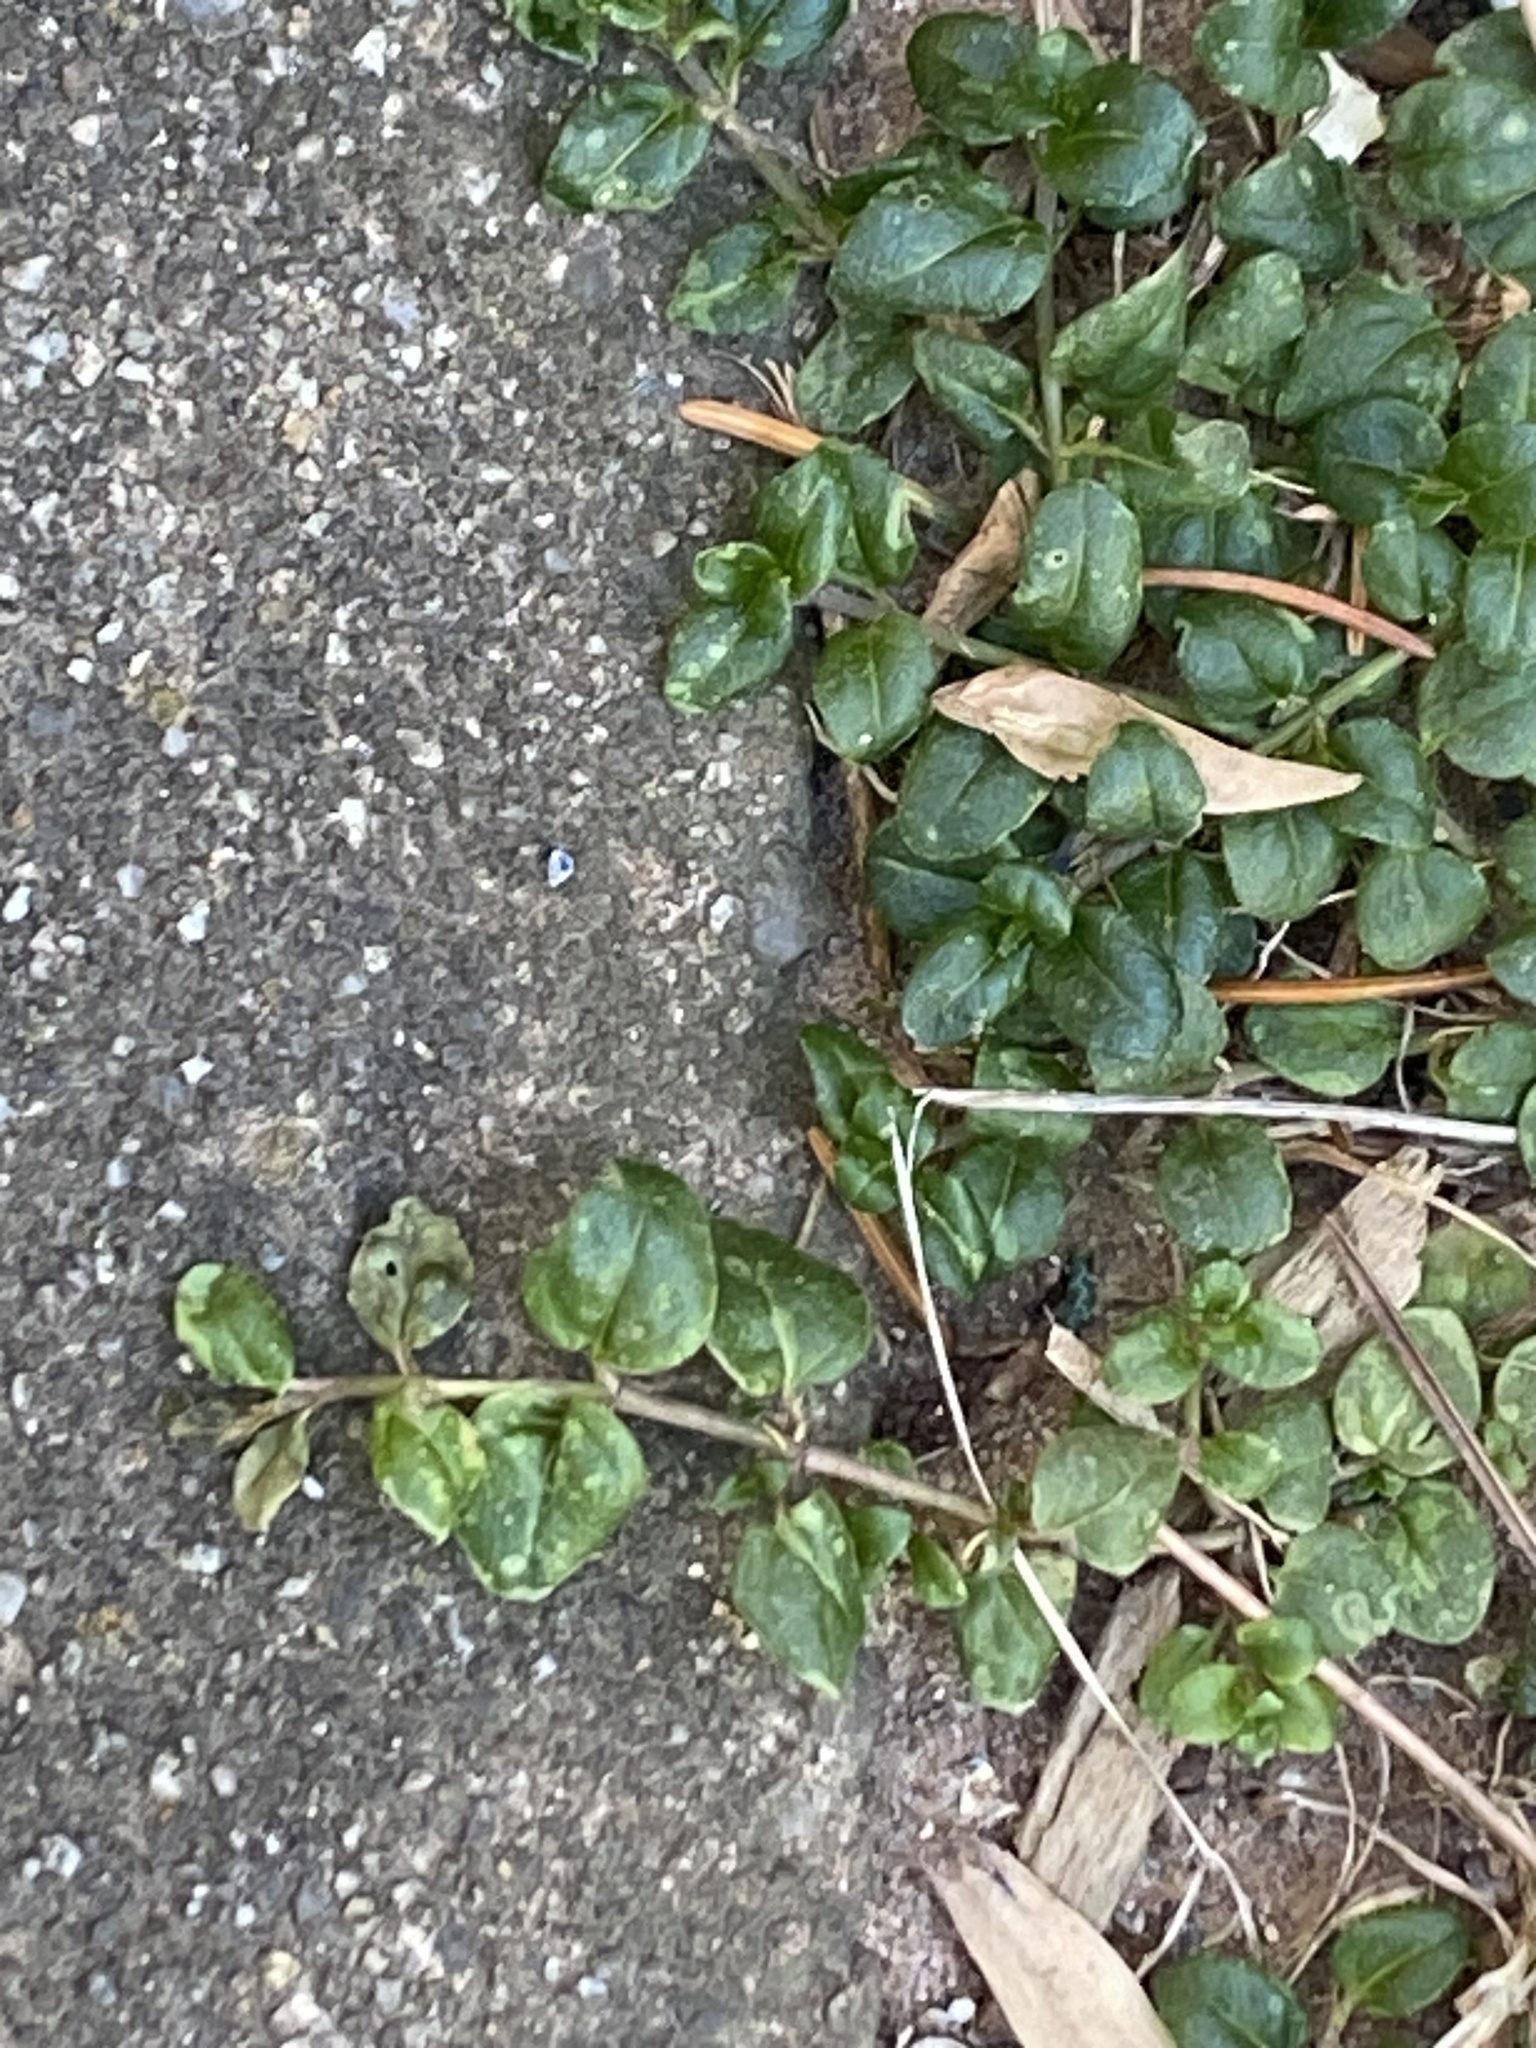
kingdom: Plantae
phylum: Tracheophyta
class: Magnoliopsida
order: Lamiales
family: Plantaginaceae
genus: Veronica
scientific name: Veronica serpyllifolia
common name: Thyme-leaved speedwell
